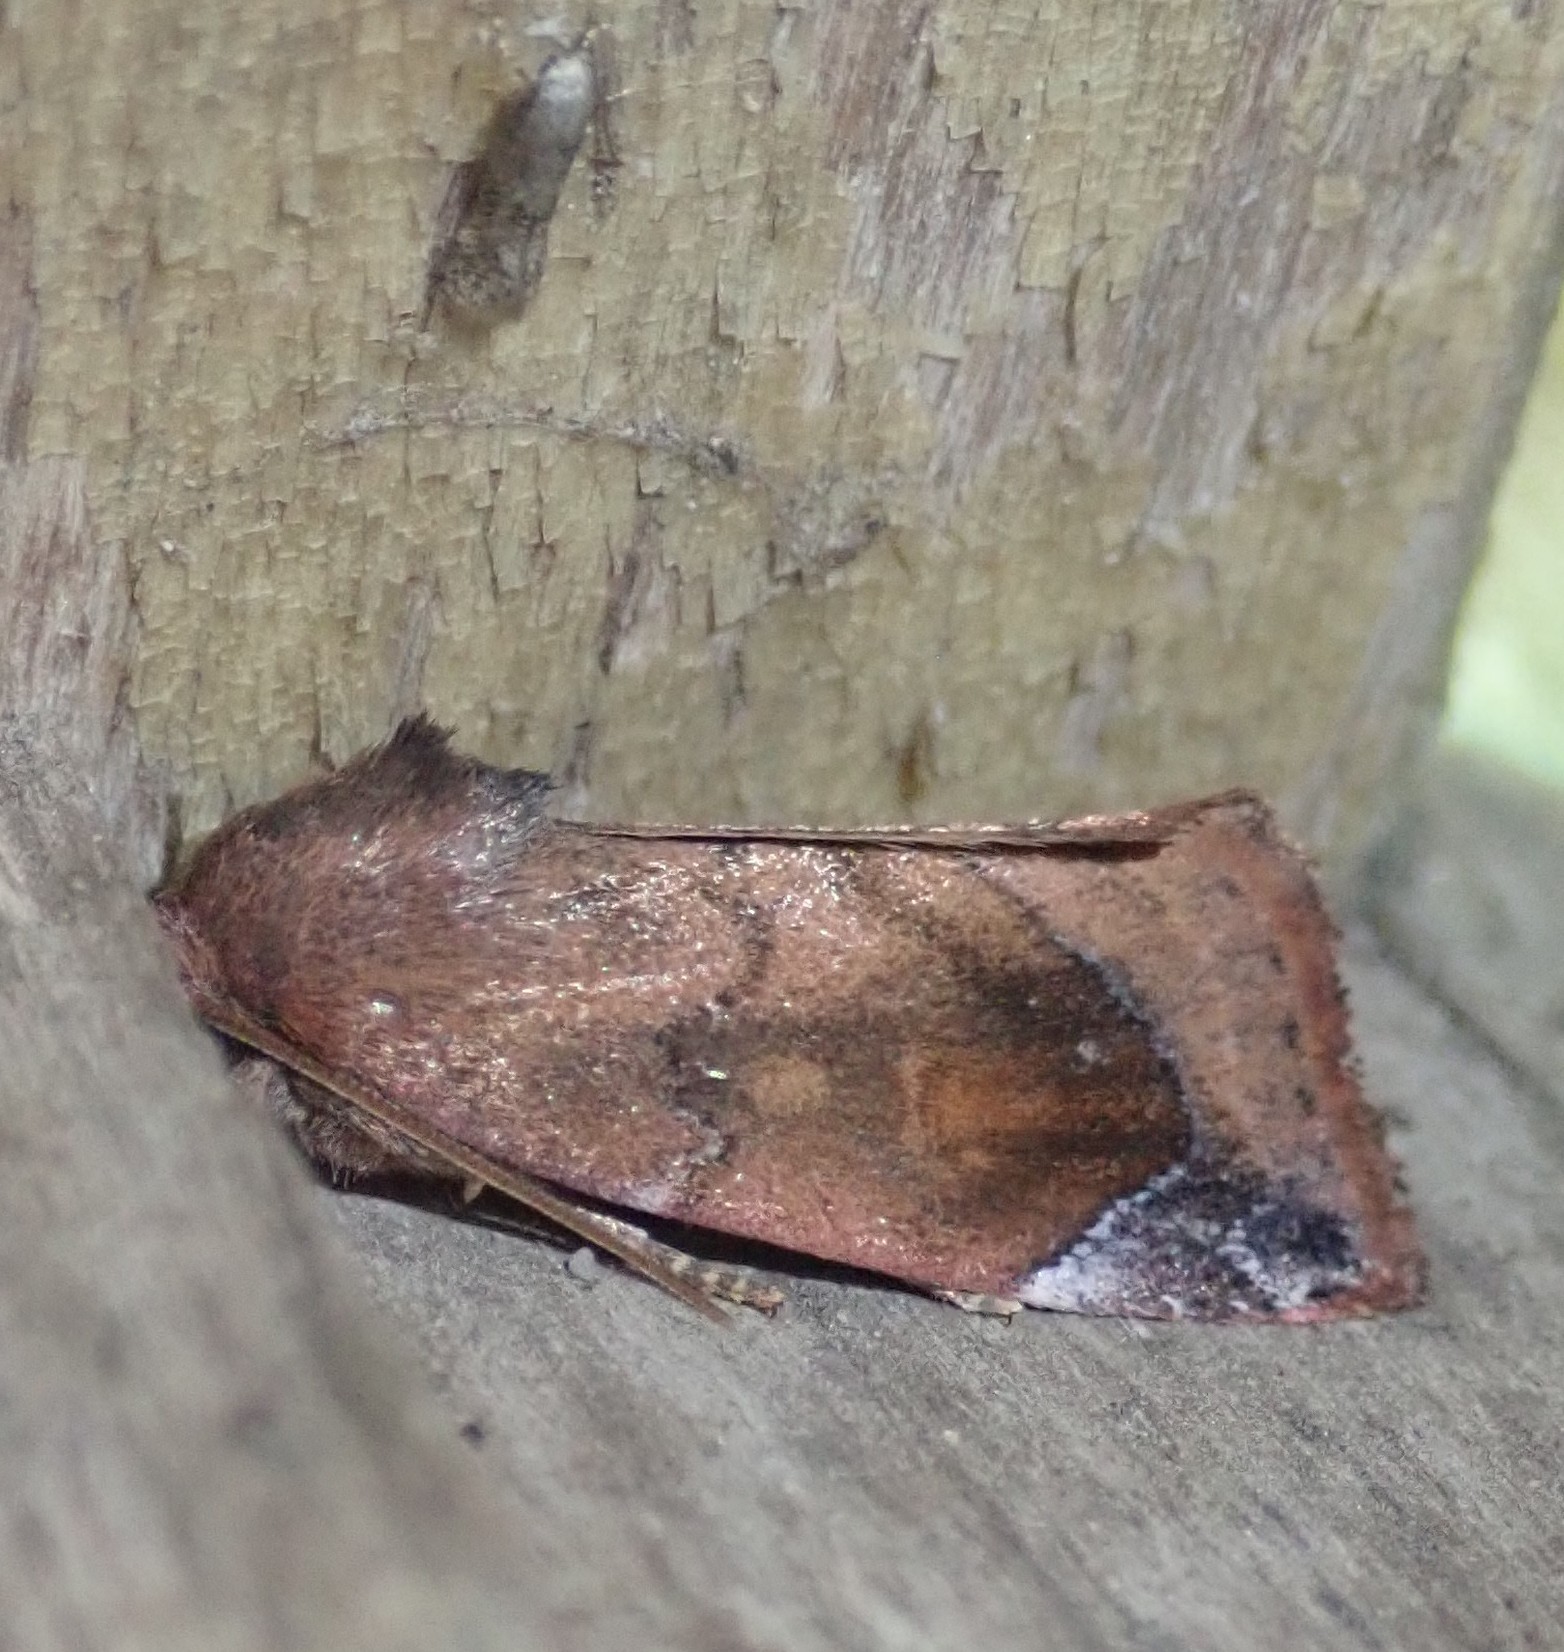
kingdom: Animalia
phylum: Arthropoda
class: Insecta
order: Lepidoptera
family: Noctuidae
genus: Cosmia
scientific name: Cosmia pyralina
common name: Lunar-spotted pinion
